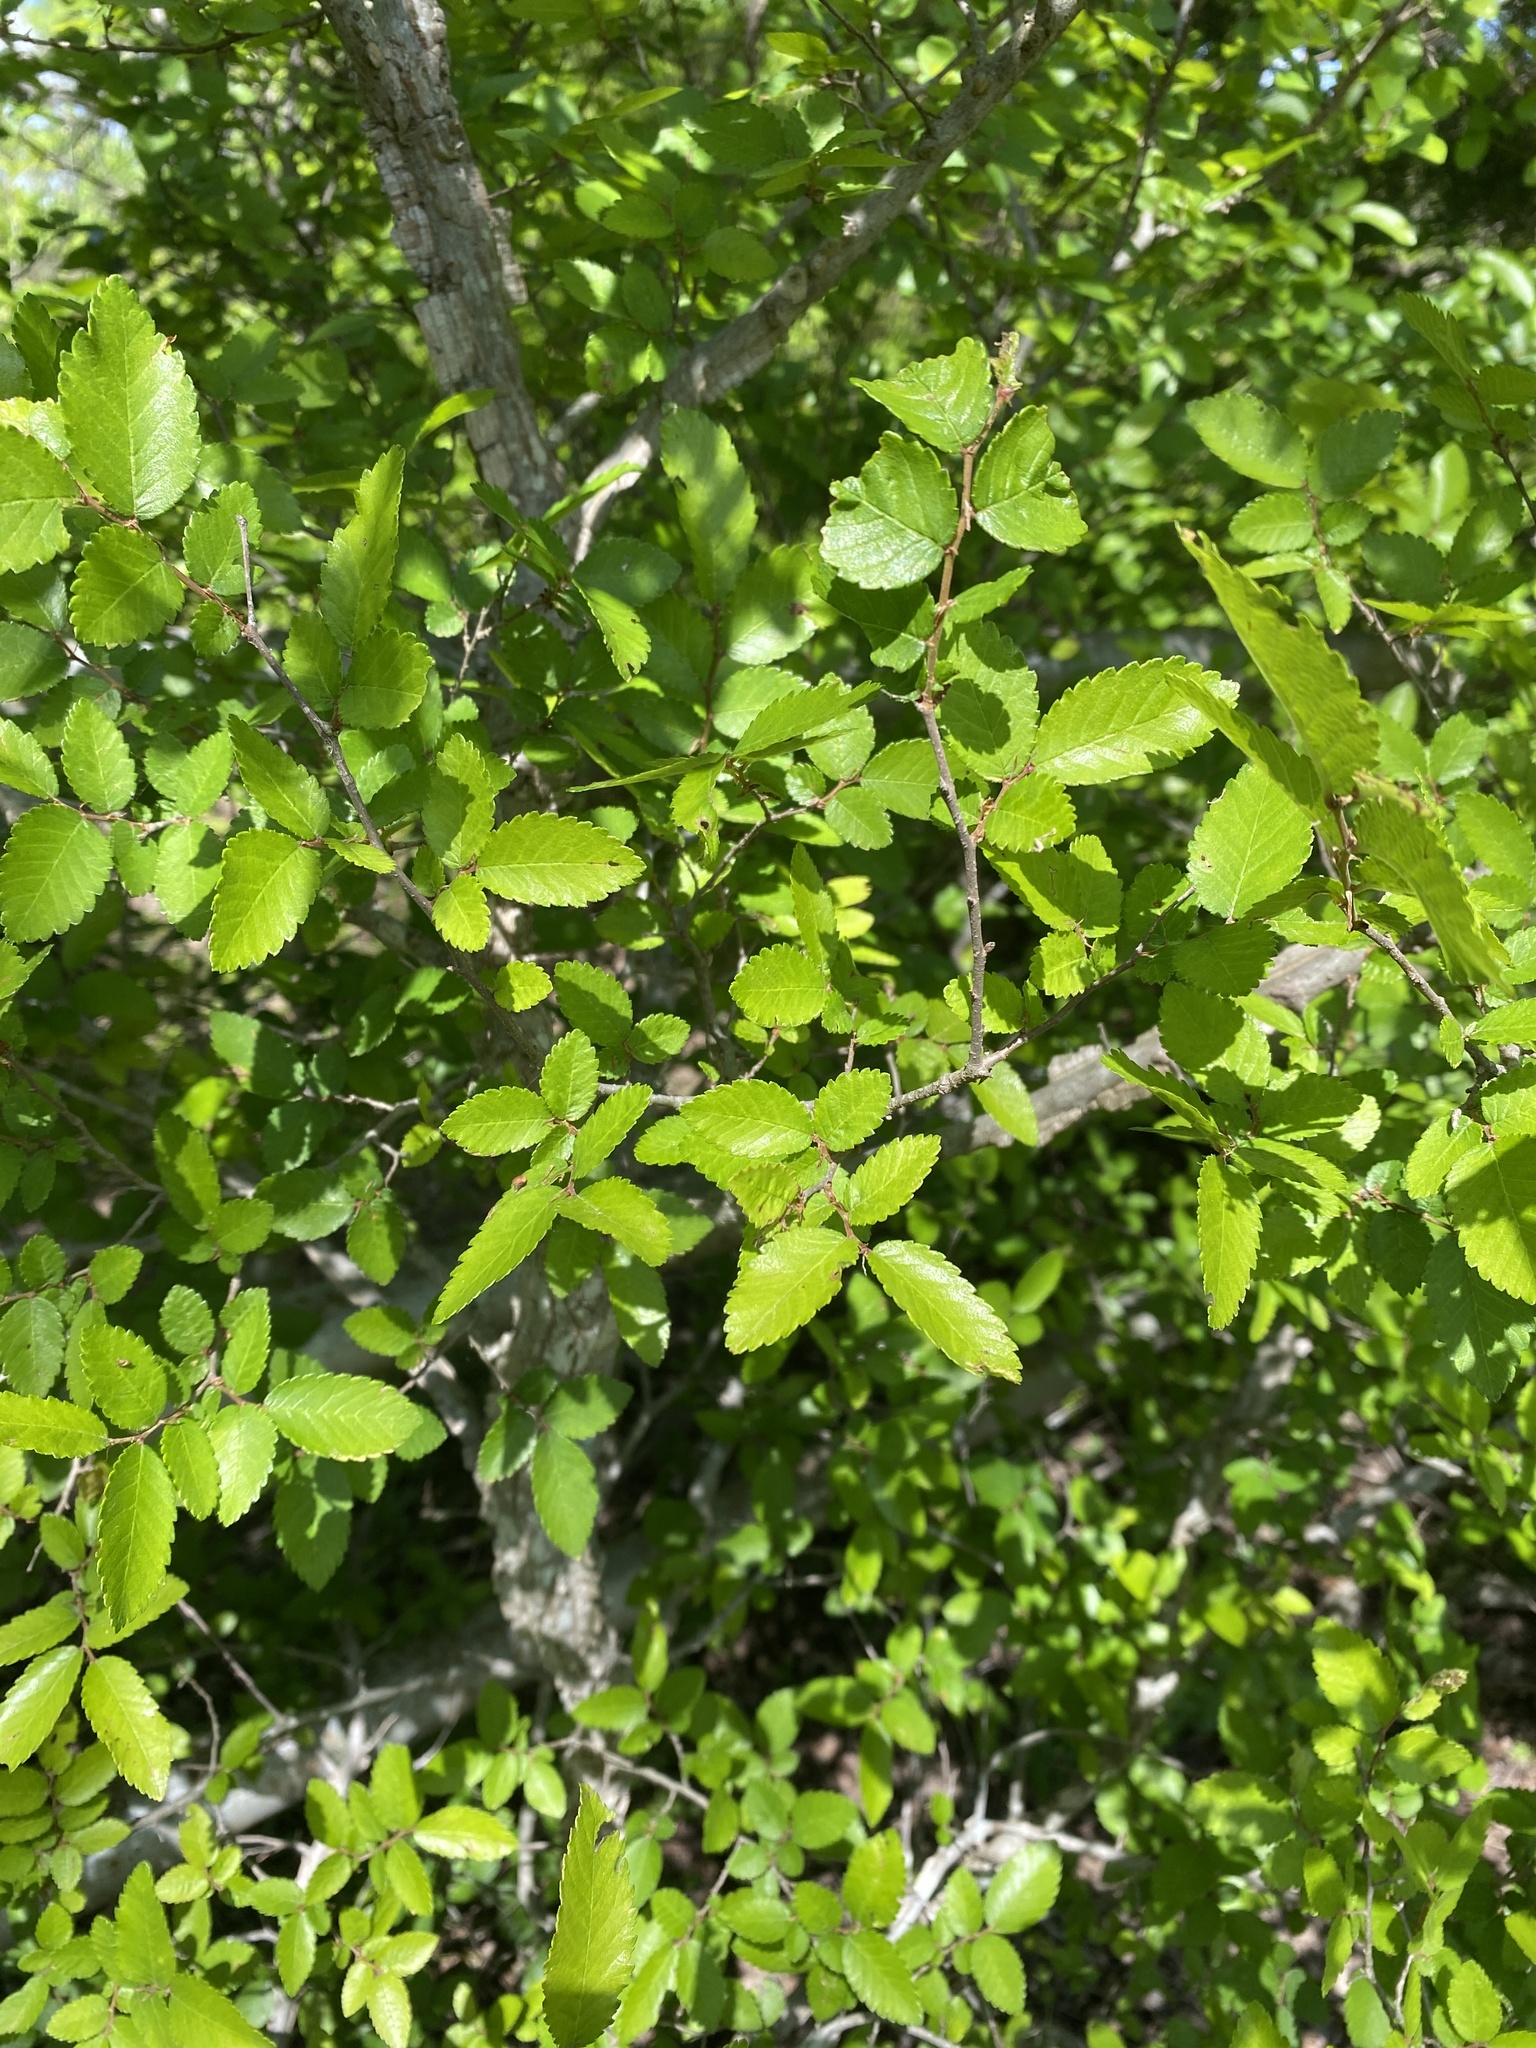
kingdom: Plantae
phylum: Tracheophyta
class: Magnoliopsida
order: Rosales
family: Ulmaceae
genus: Ulmus
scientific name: Ulmus crassifolia
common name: Basket elm
